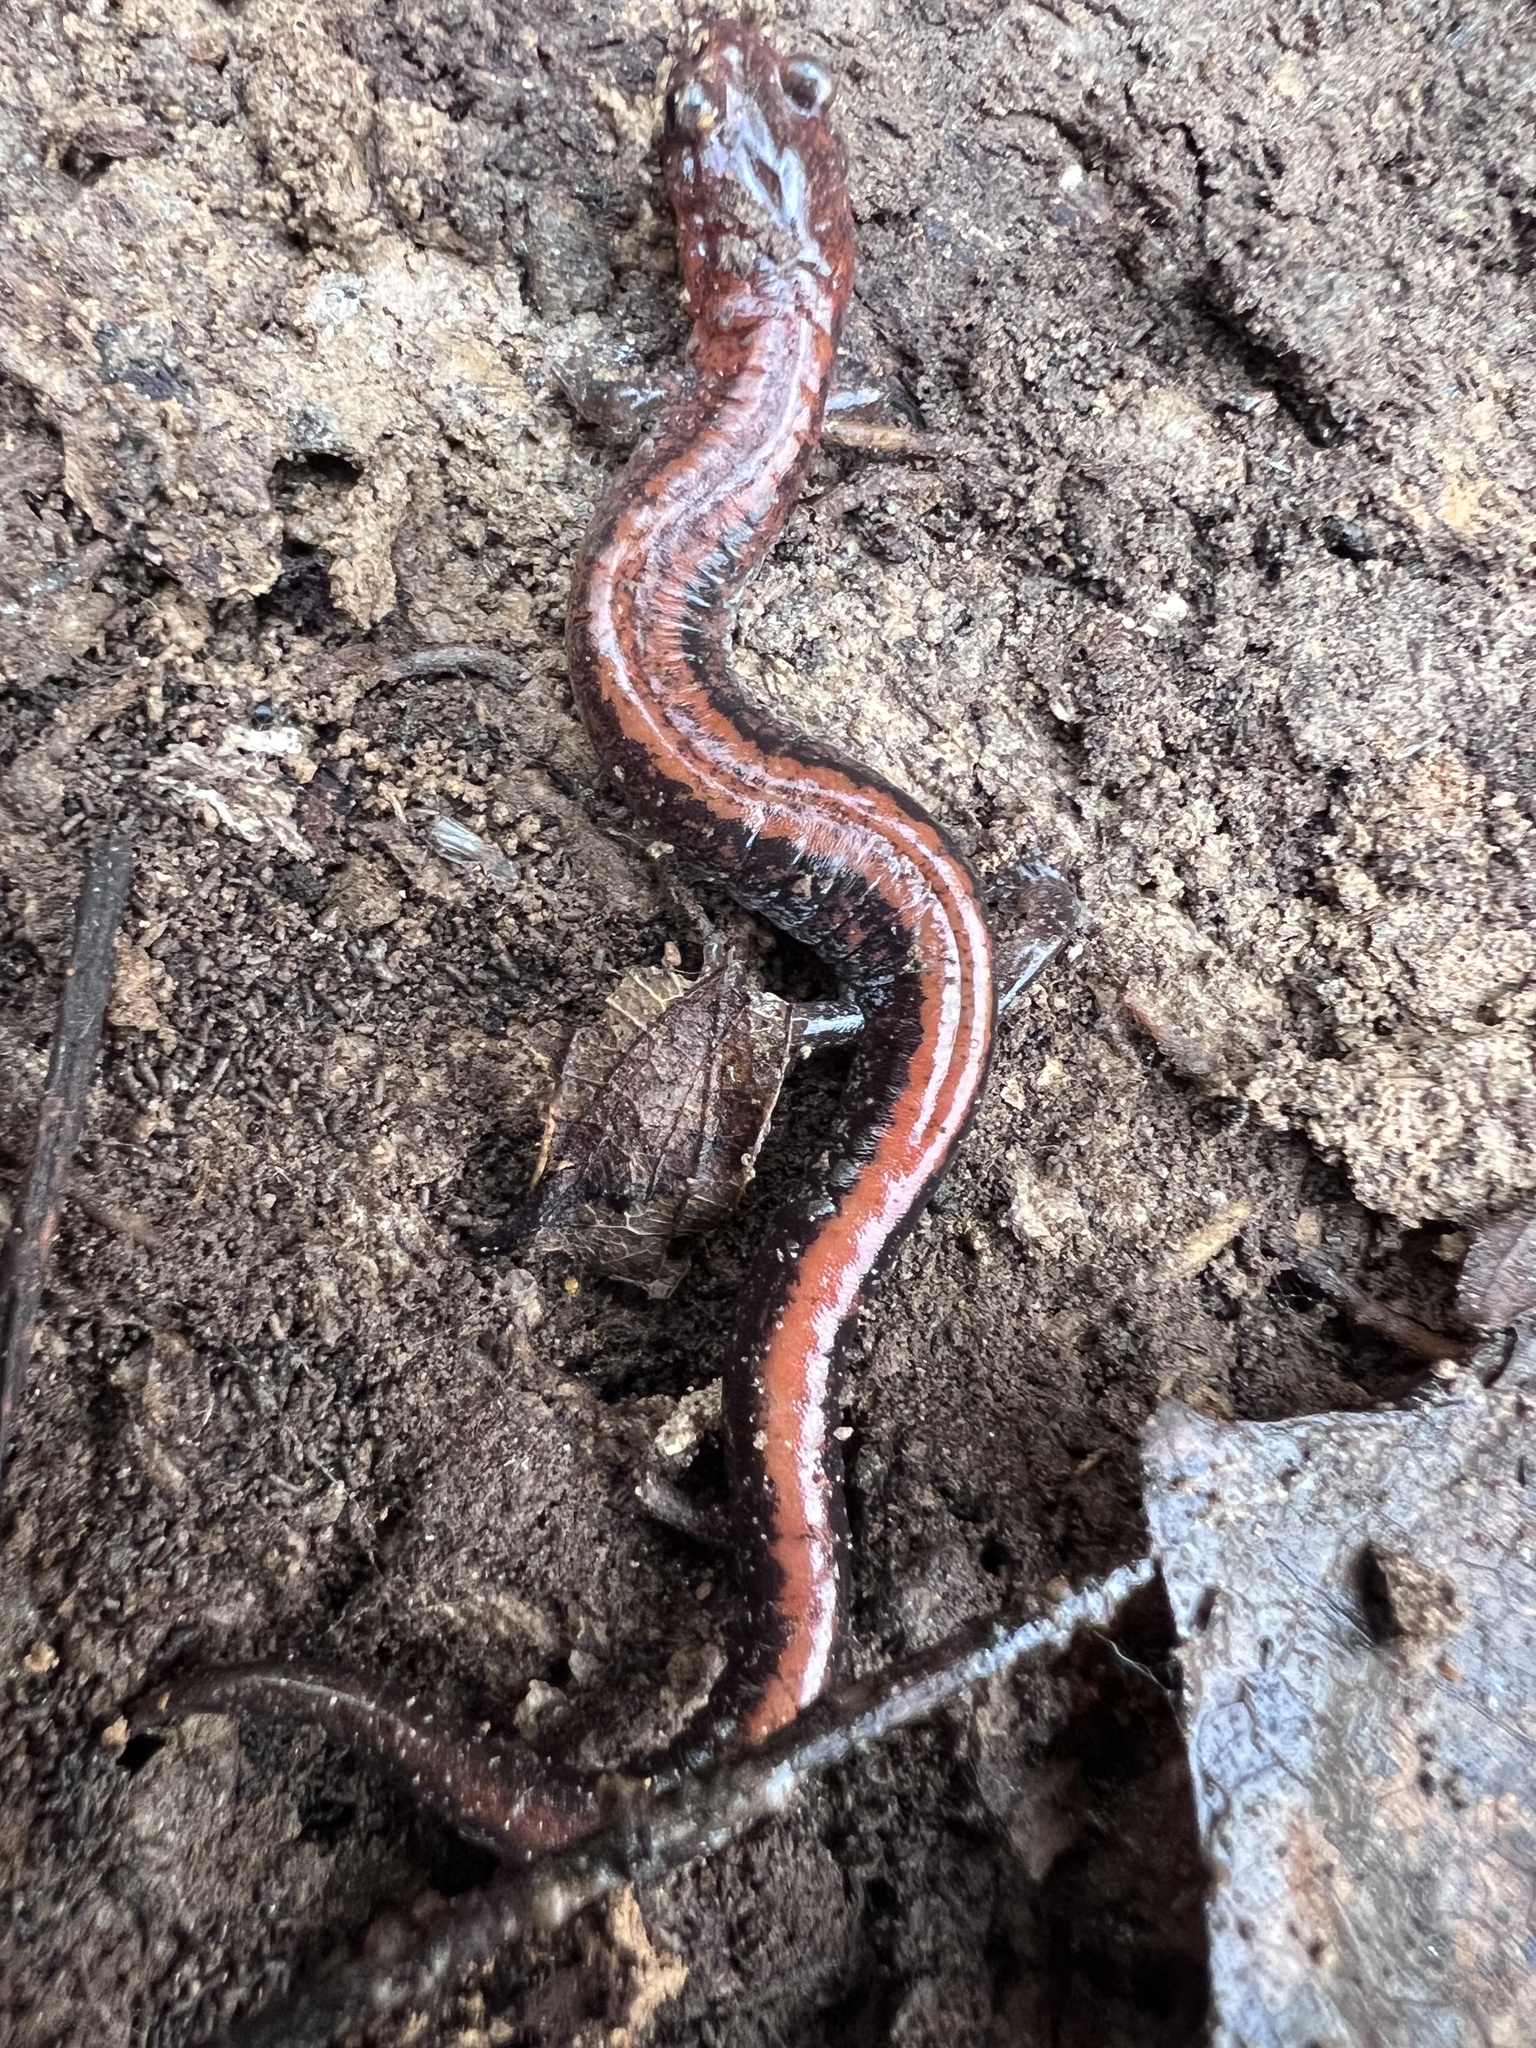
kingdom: Animalia
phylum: Chordata
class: Amphibia
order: Caudata
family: Plethodontidae
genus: Plethodon
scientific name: Plethodon cinereus
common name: Redback salamander
